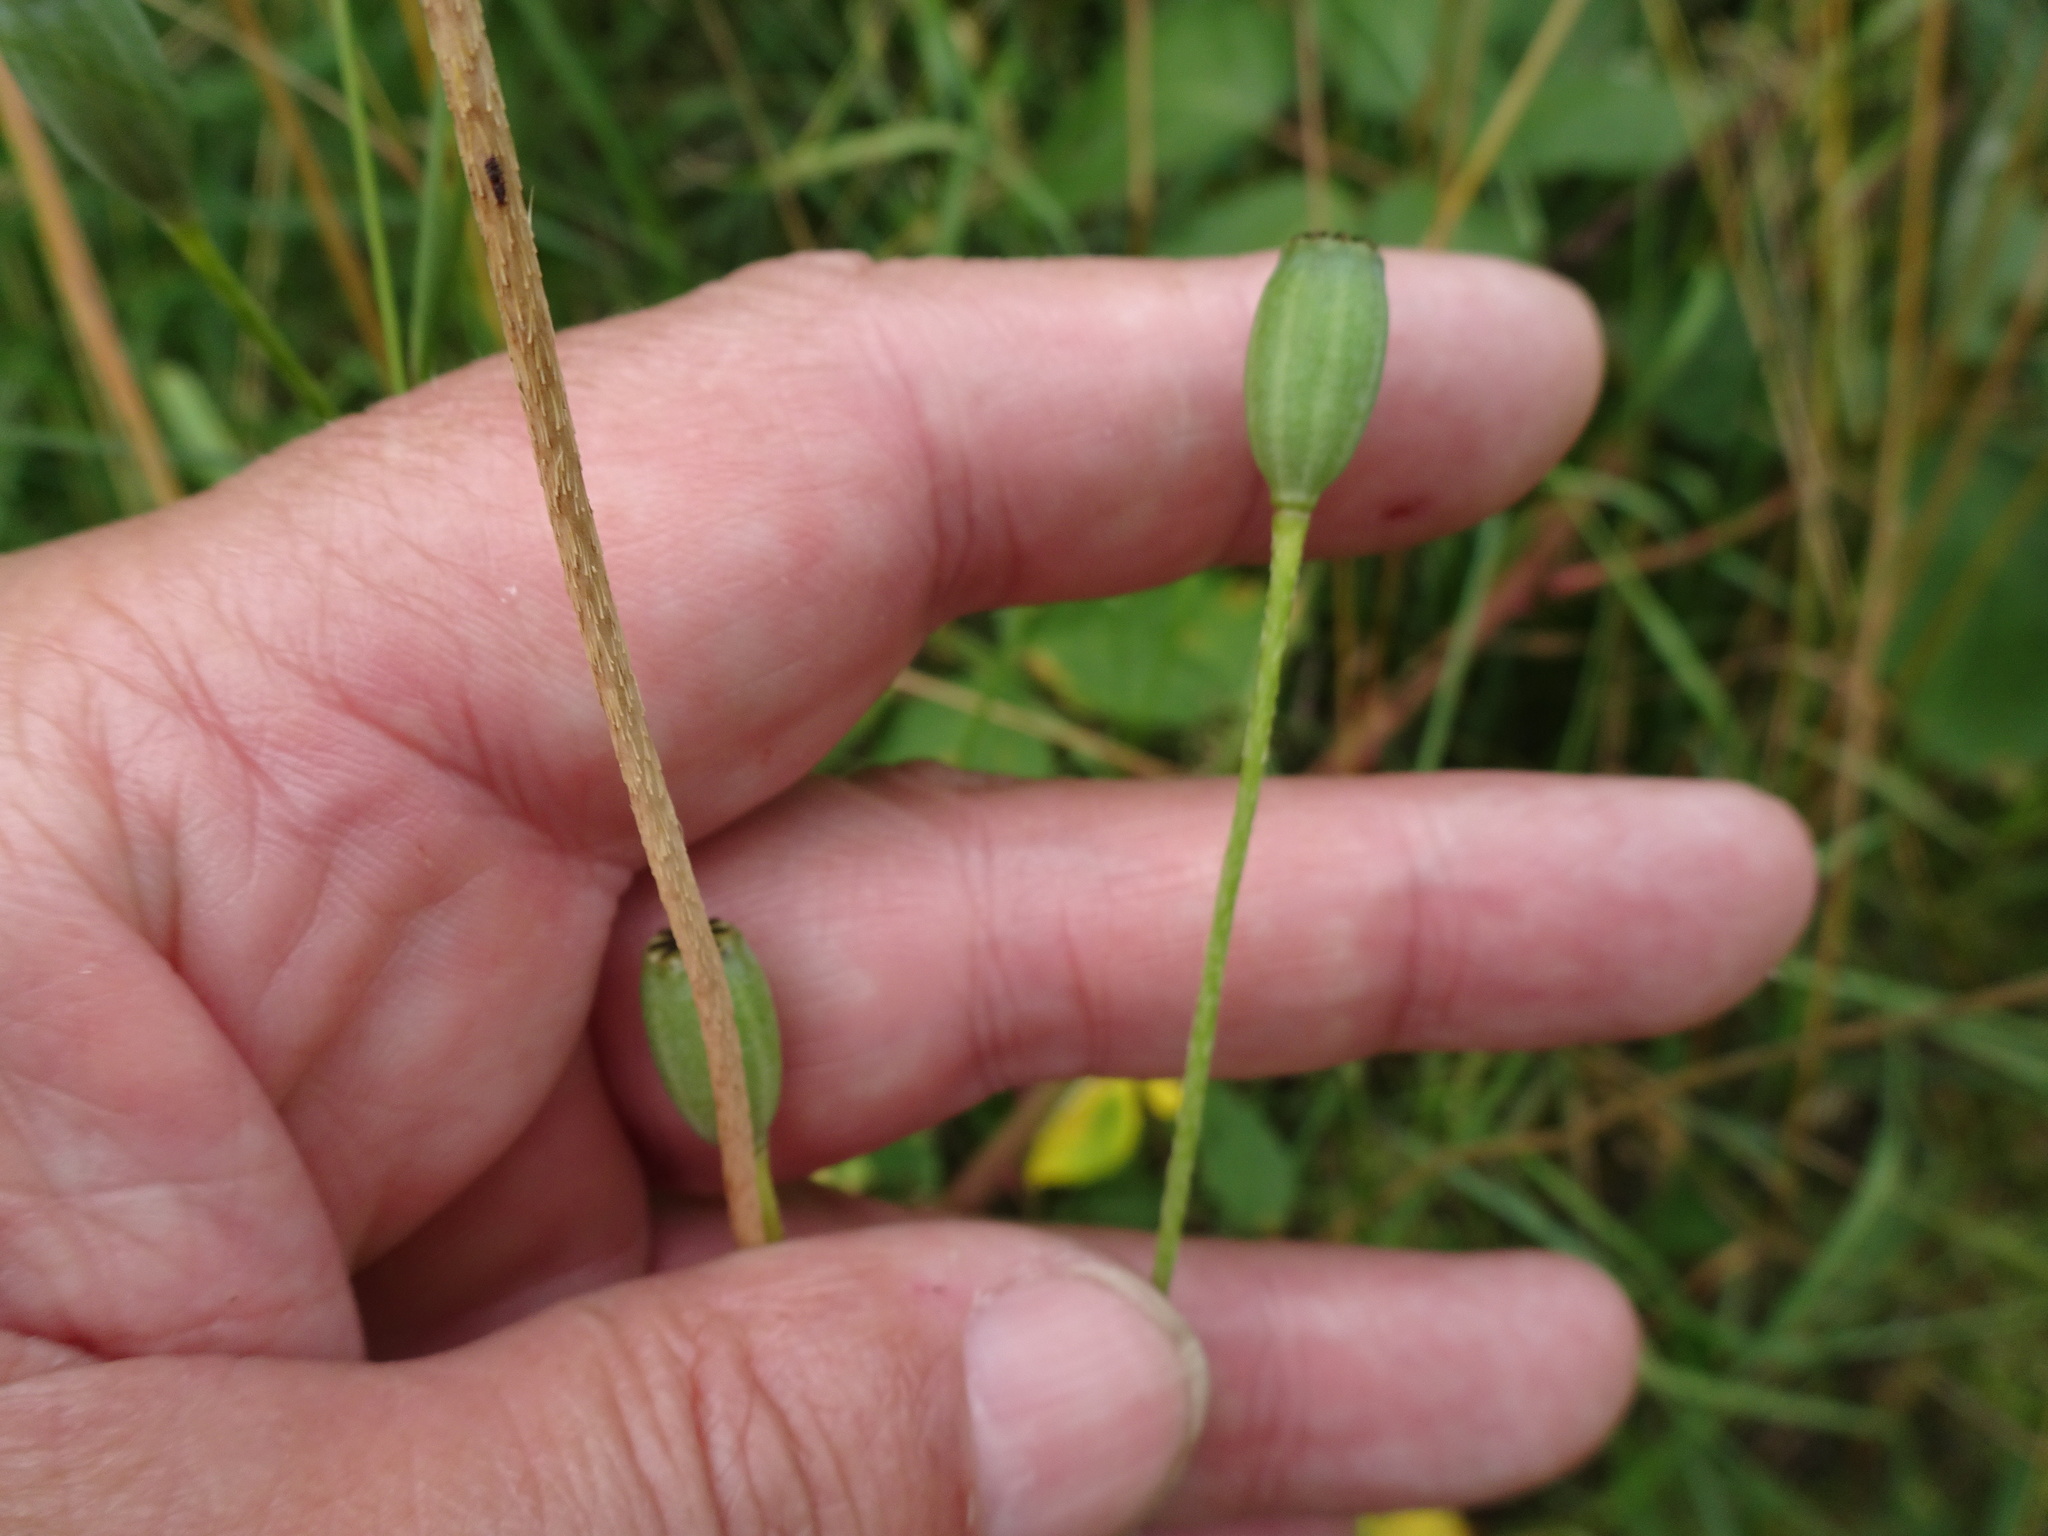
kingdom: Plantae
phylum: Tracheophyta
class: Magnoliopsida
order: Ranunculales
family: Papaveraceae
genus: Papaver
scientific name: Papaver dubium
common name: Long-headed poppy
